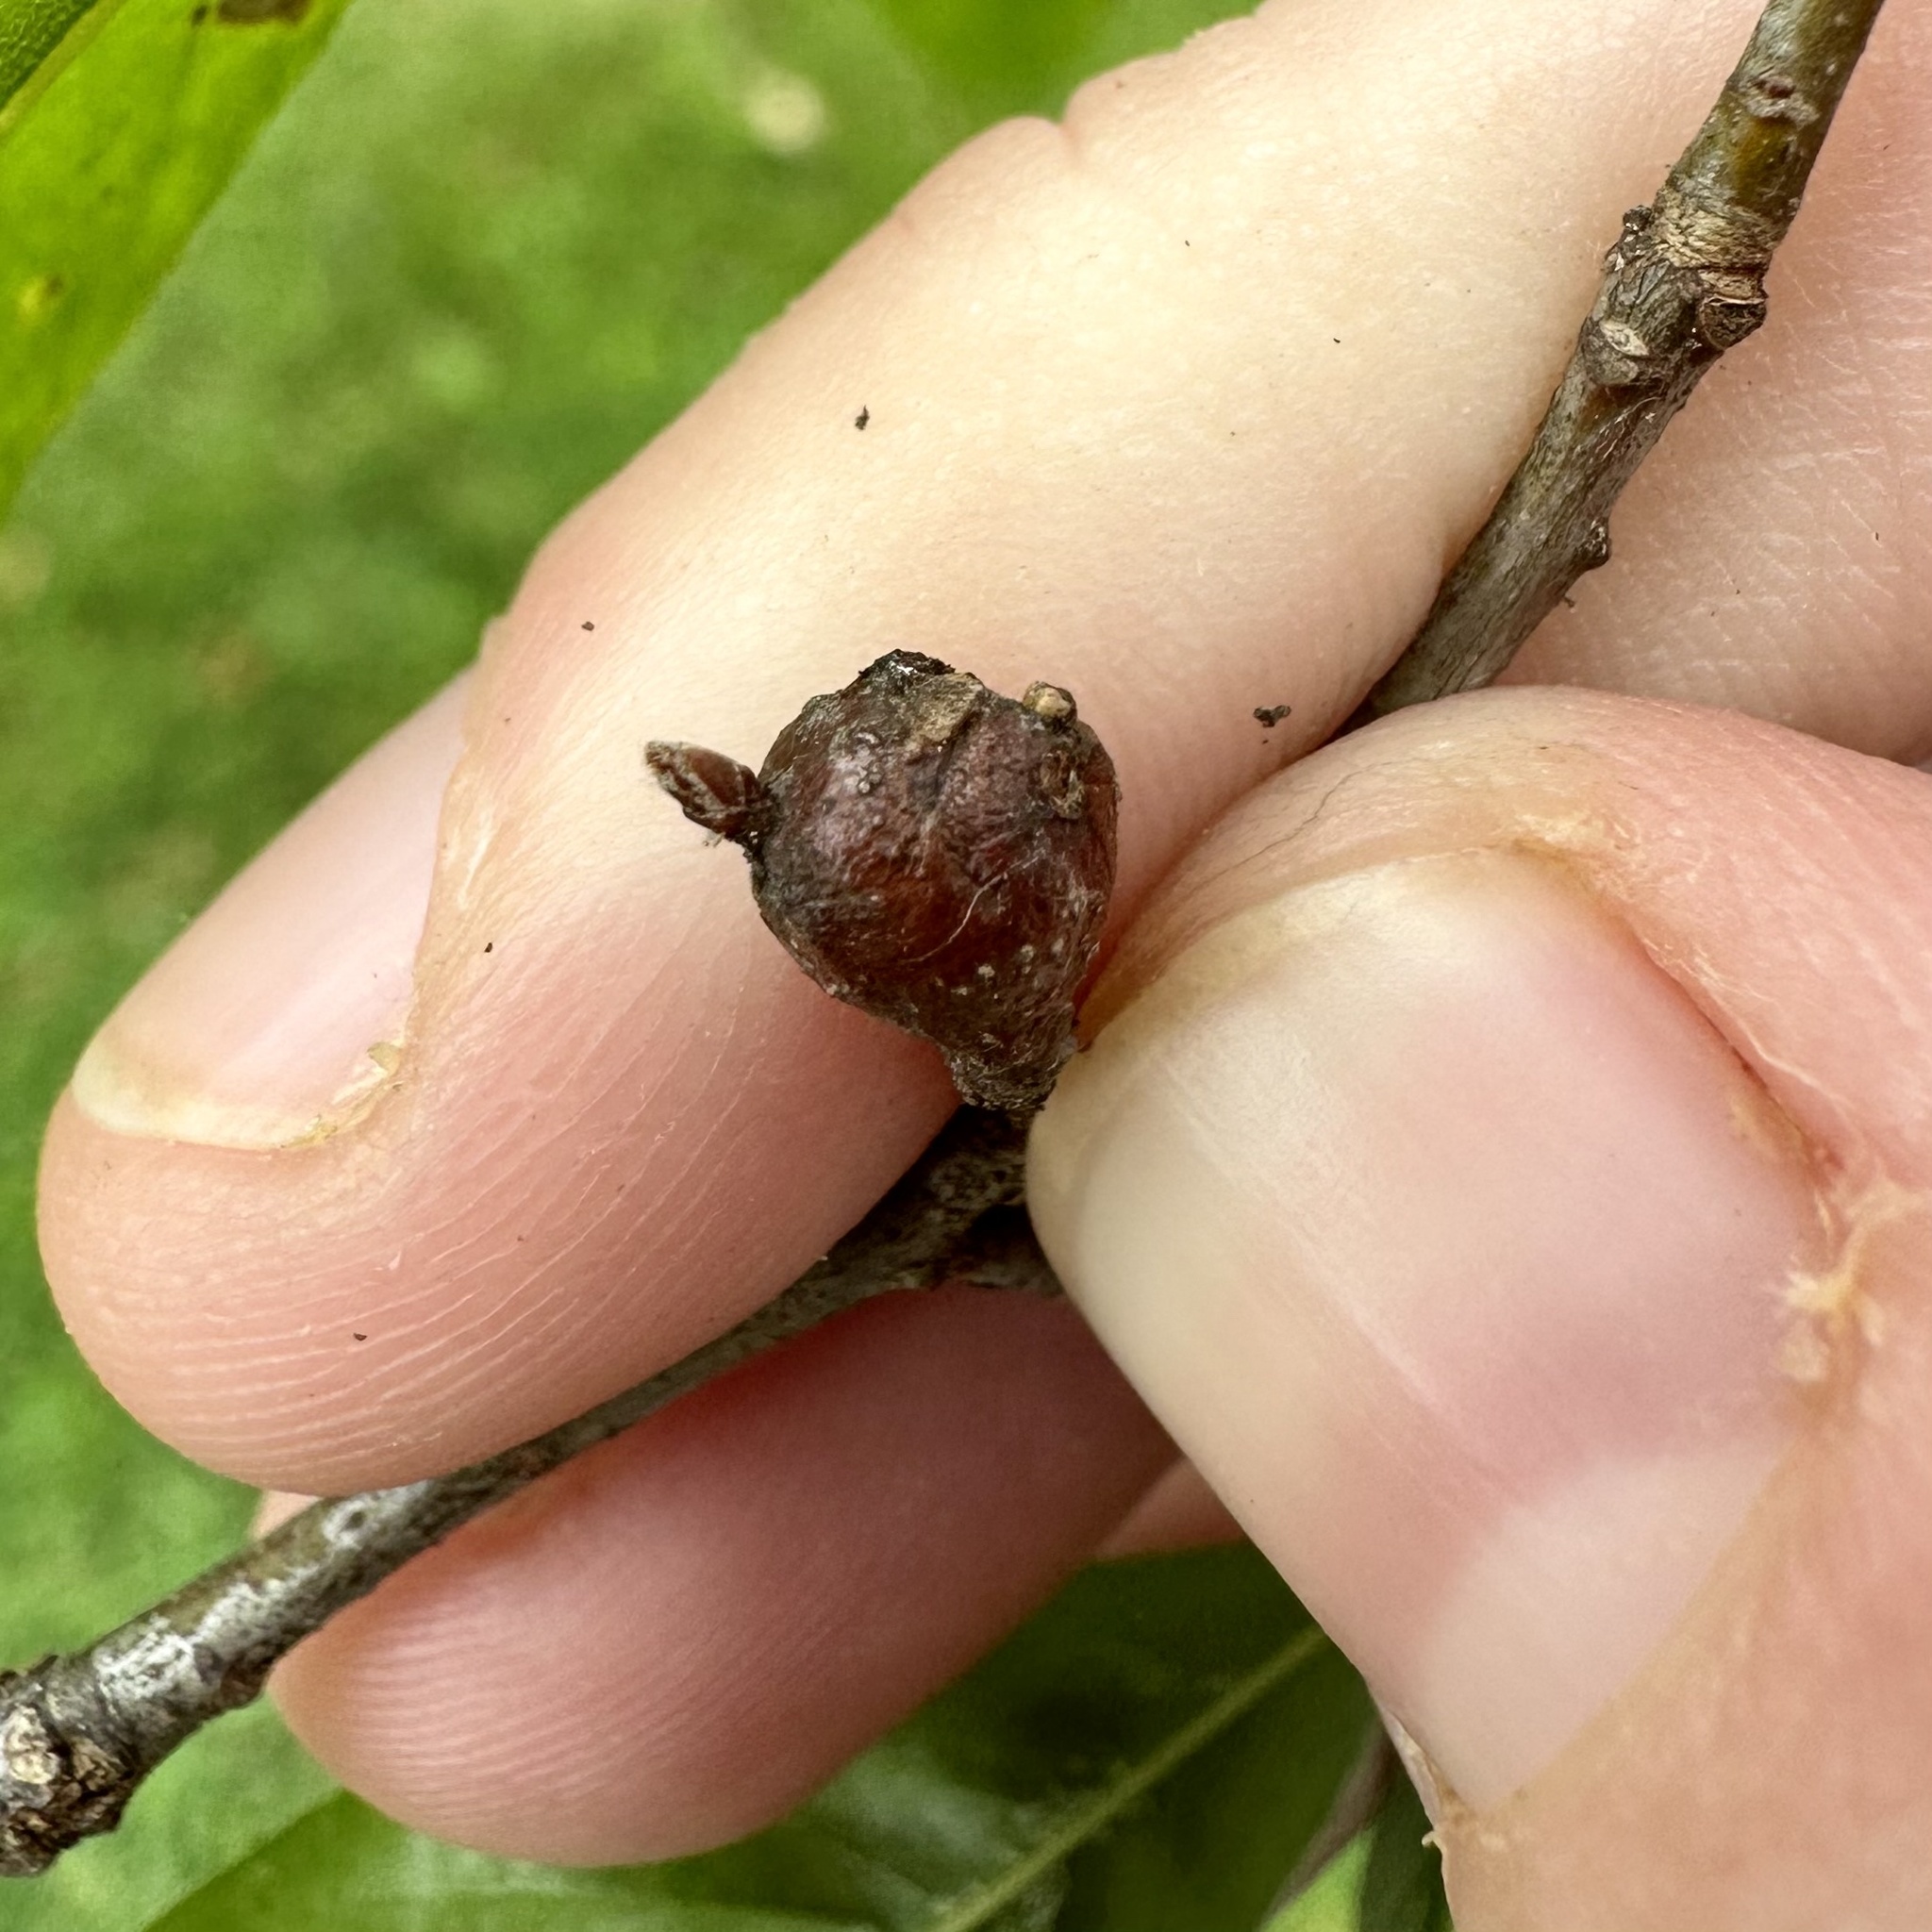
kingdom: Animalia
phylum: Arthropoda
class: Insecta
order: Hymenoptera
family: Cynipidae
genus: Zapatella
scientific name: Zapatella quercusphellos
